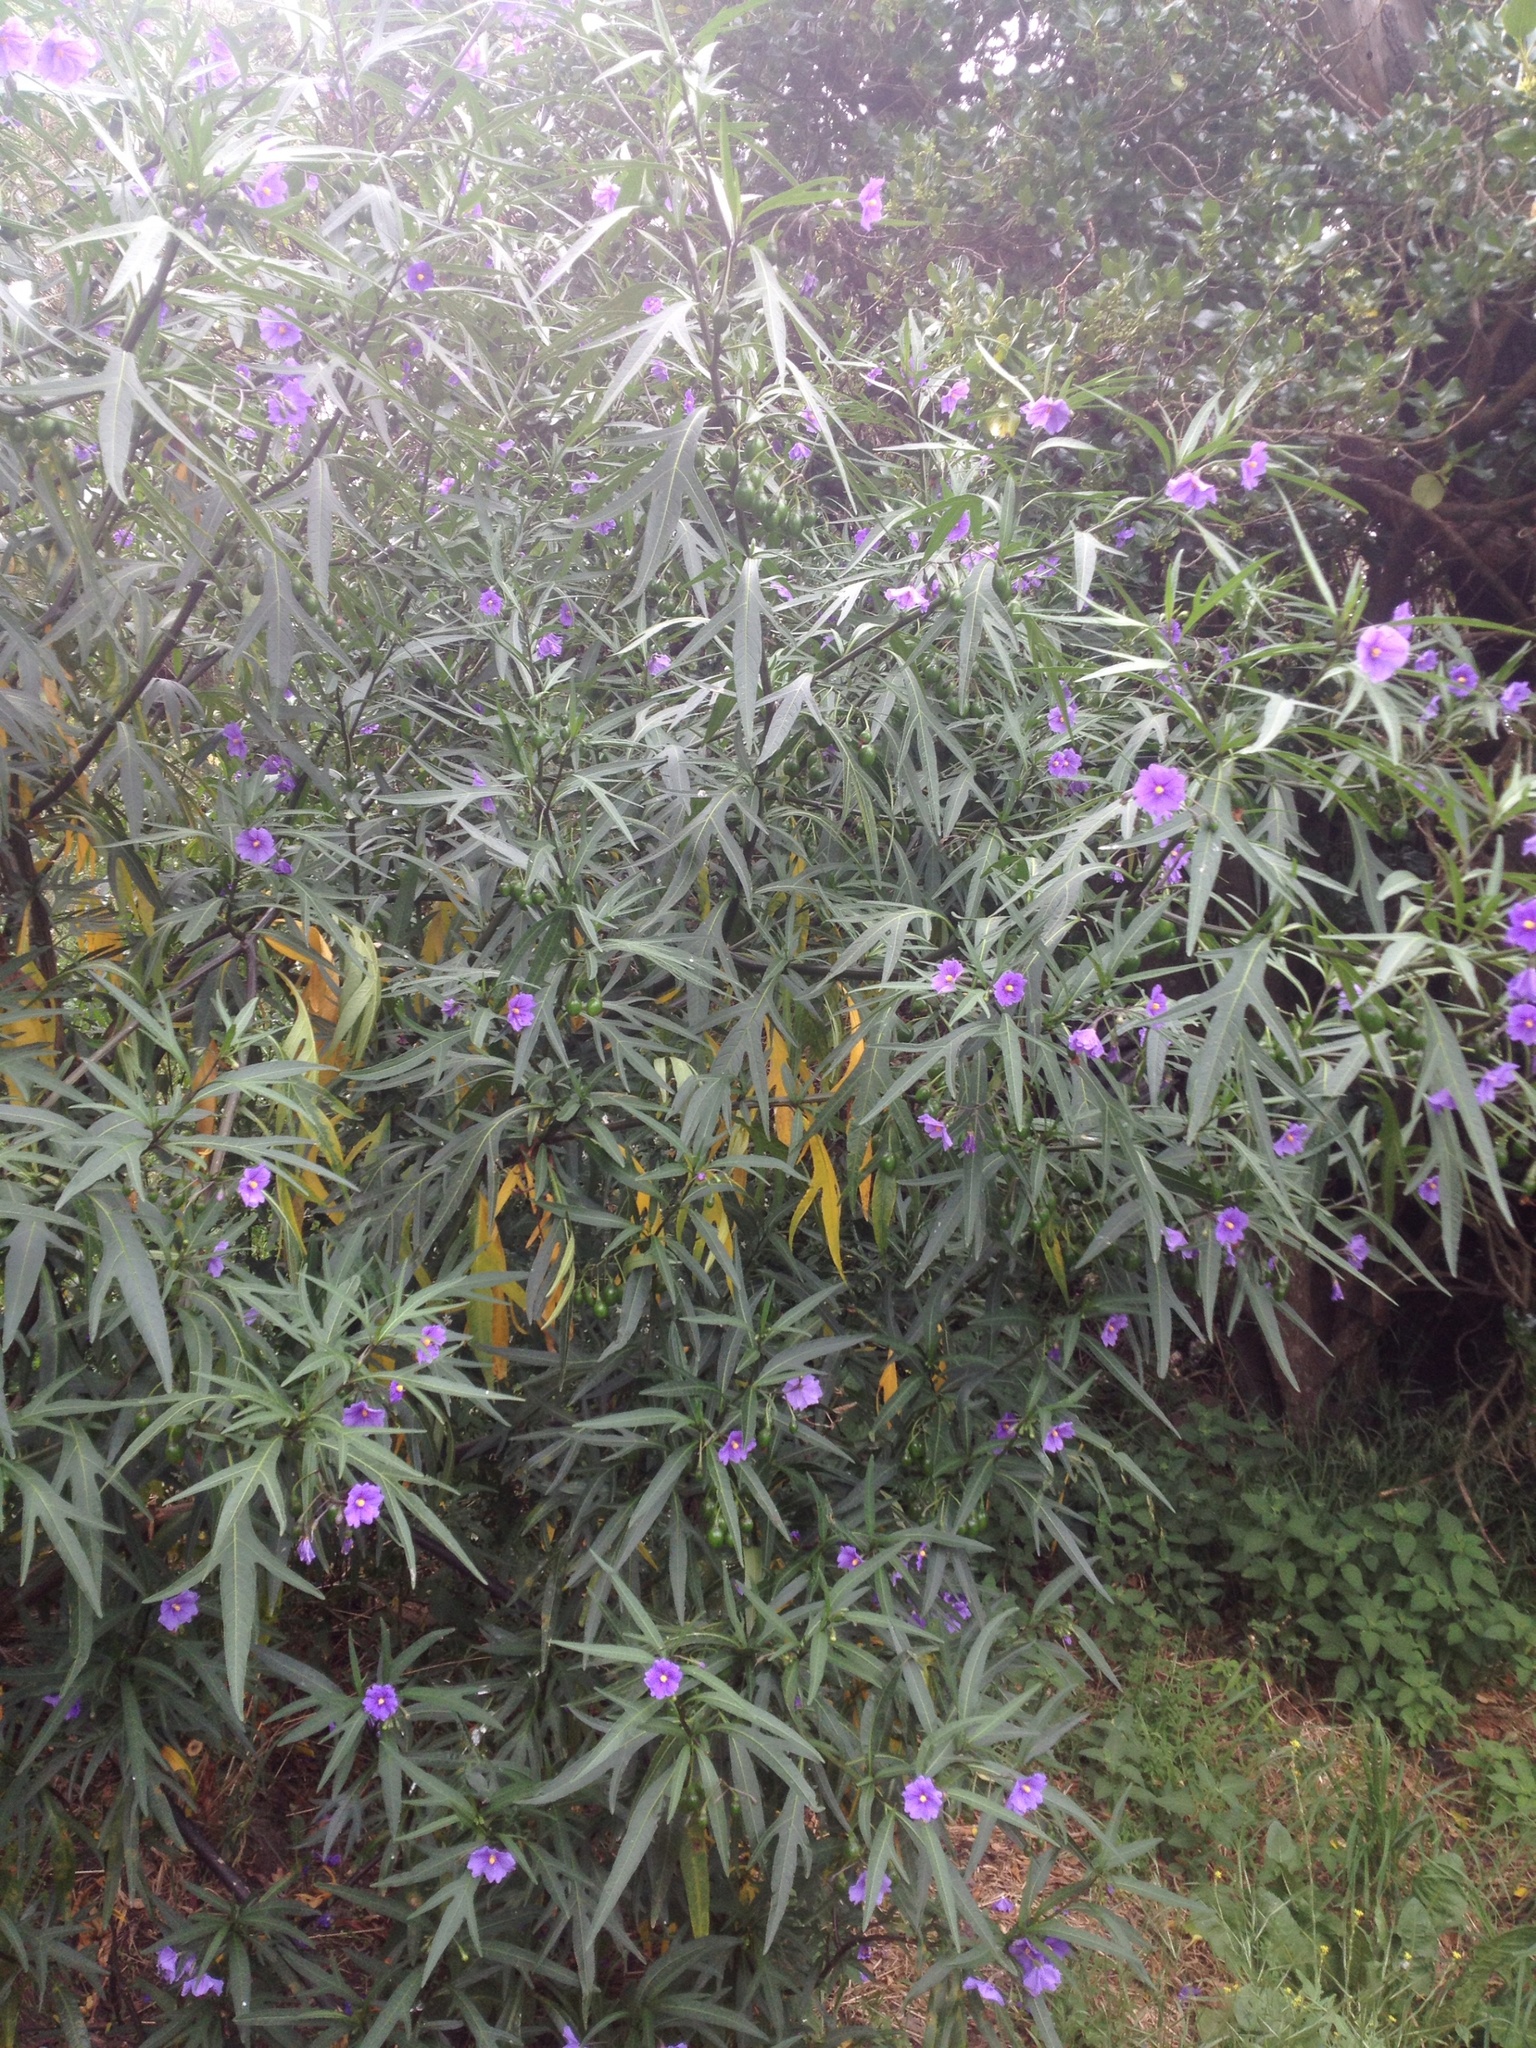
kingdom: Plantae
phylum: Tracheophyta
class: Magnoliopsida
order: Solanales
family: Solanaceae
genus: Solanum
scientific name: Solanum laciniatum
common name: Kangaroo-apple
